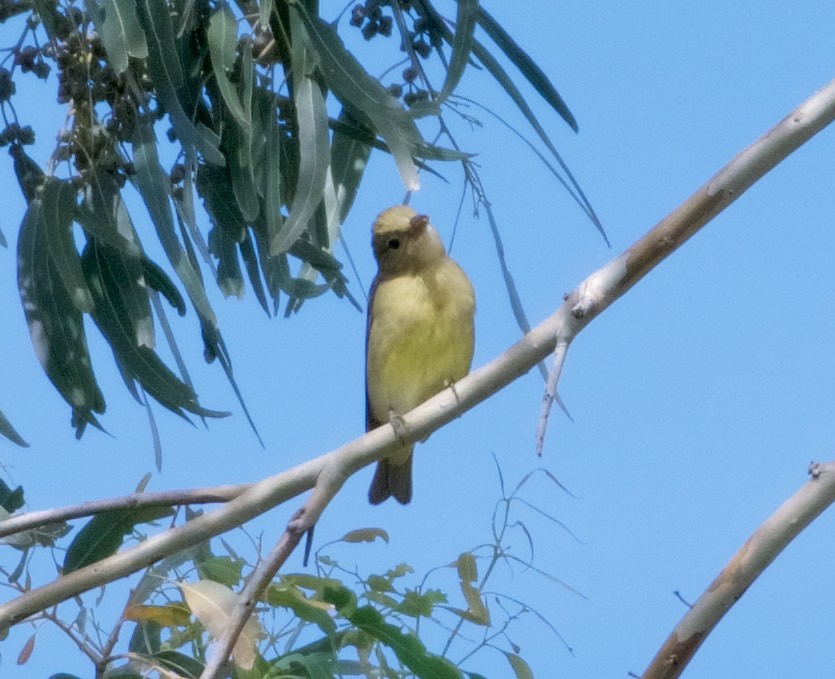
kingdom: Animalia
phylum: Chordata
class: Aves
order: Passeriformes
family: Cardinalidae
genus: Piranga
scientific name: Piranga ludoviciana
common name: Western tanager
